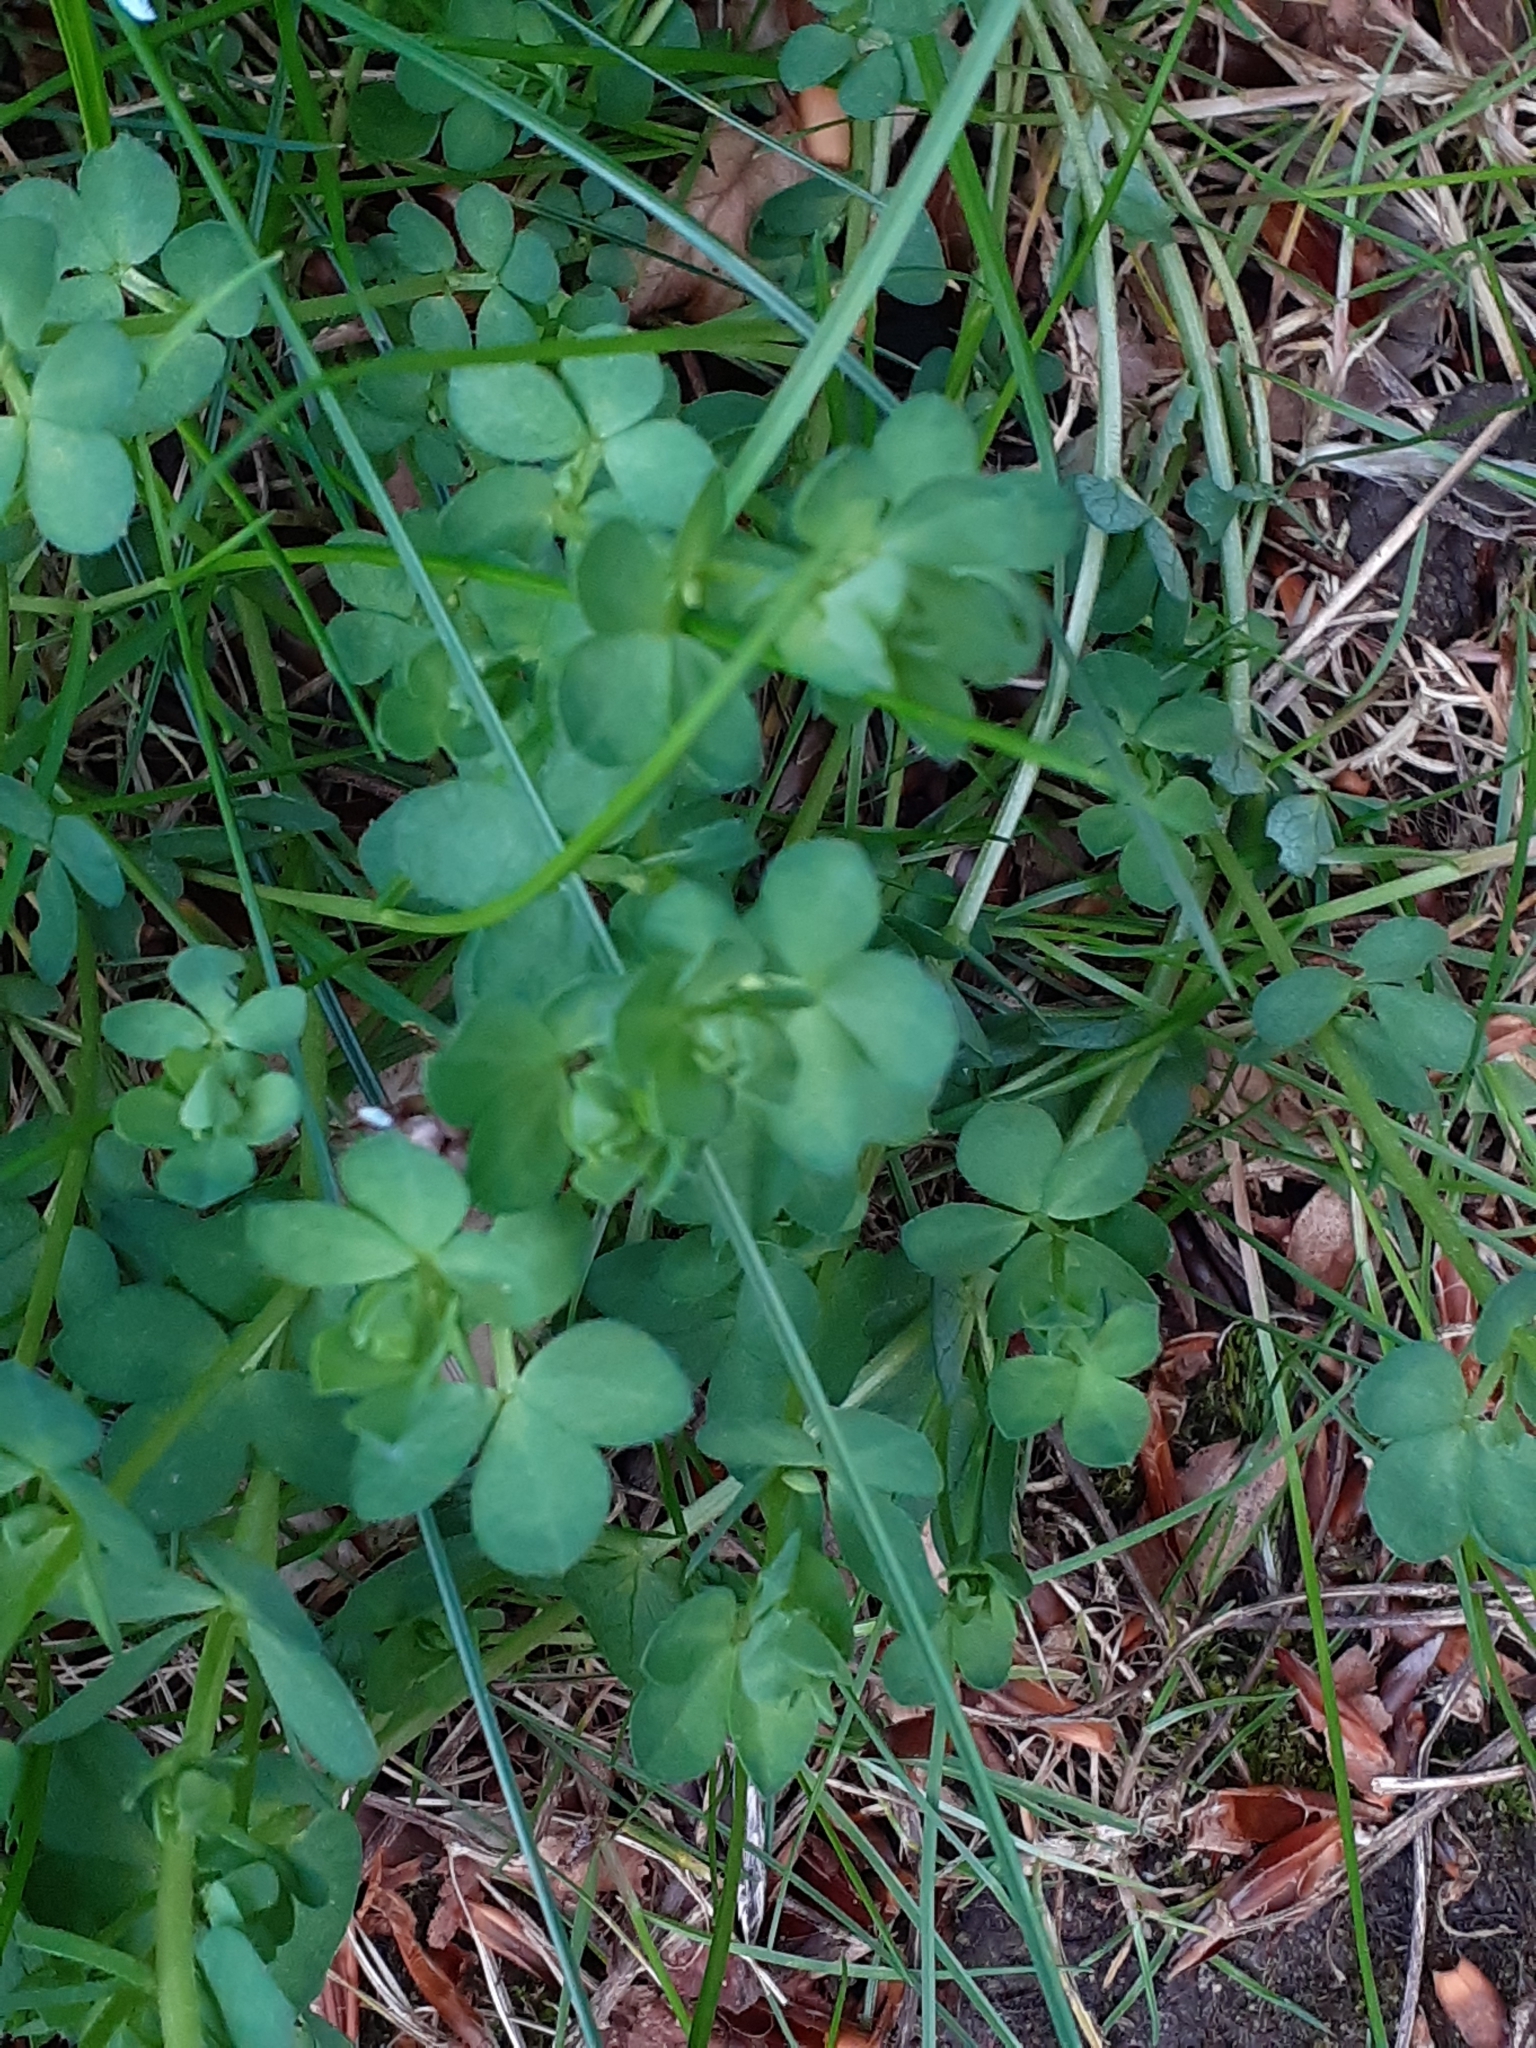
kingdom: Plantae
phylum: Tracheophyta
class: Magnoliopsida
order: Fabales
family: Fabaceae
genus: Lotus
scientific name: Lotus corniculatus
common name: Common bird's-foot-trefoil
